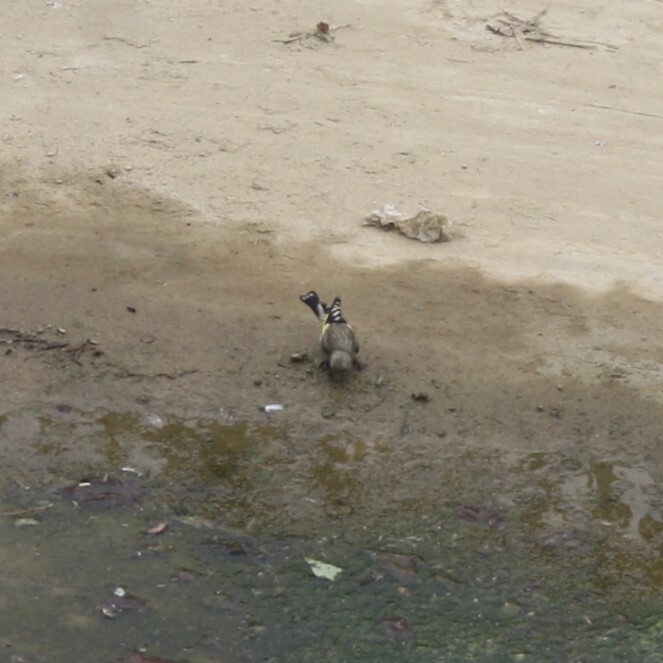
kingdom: Animalia
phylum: Chordata
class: Aves
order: Passeriformes
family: Fringillidae
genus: Carduelis
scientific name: Carduelis carduelis
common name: European goldfinch
